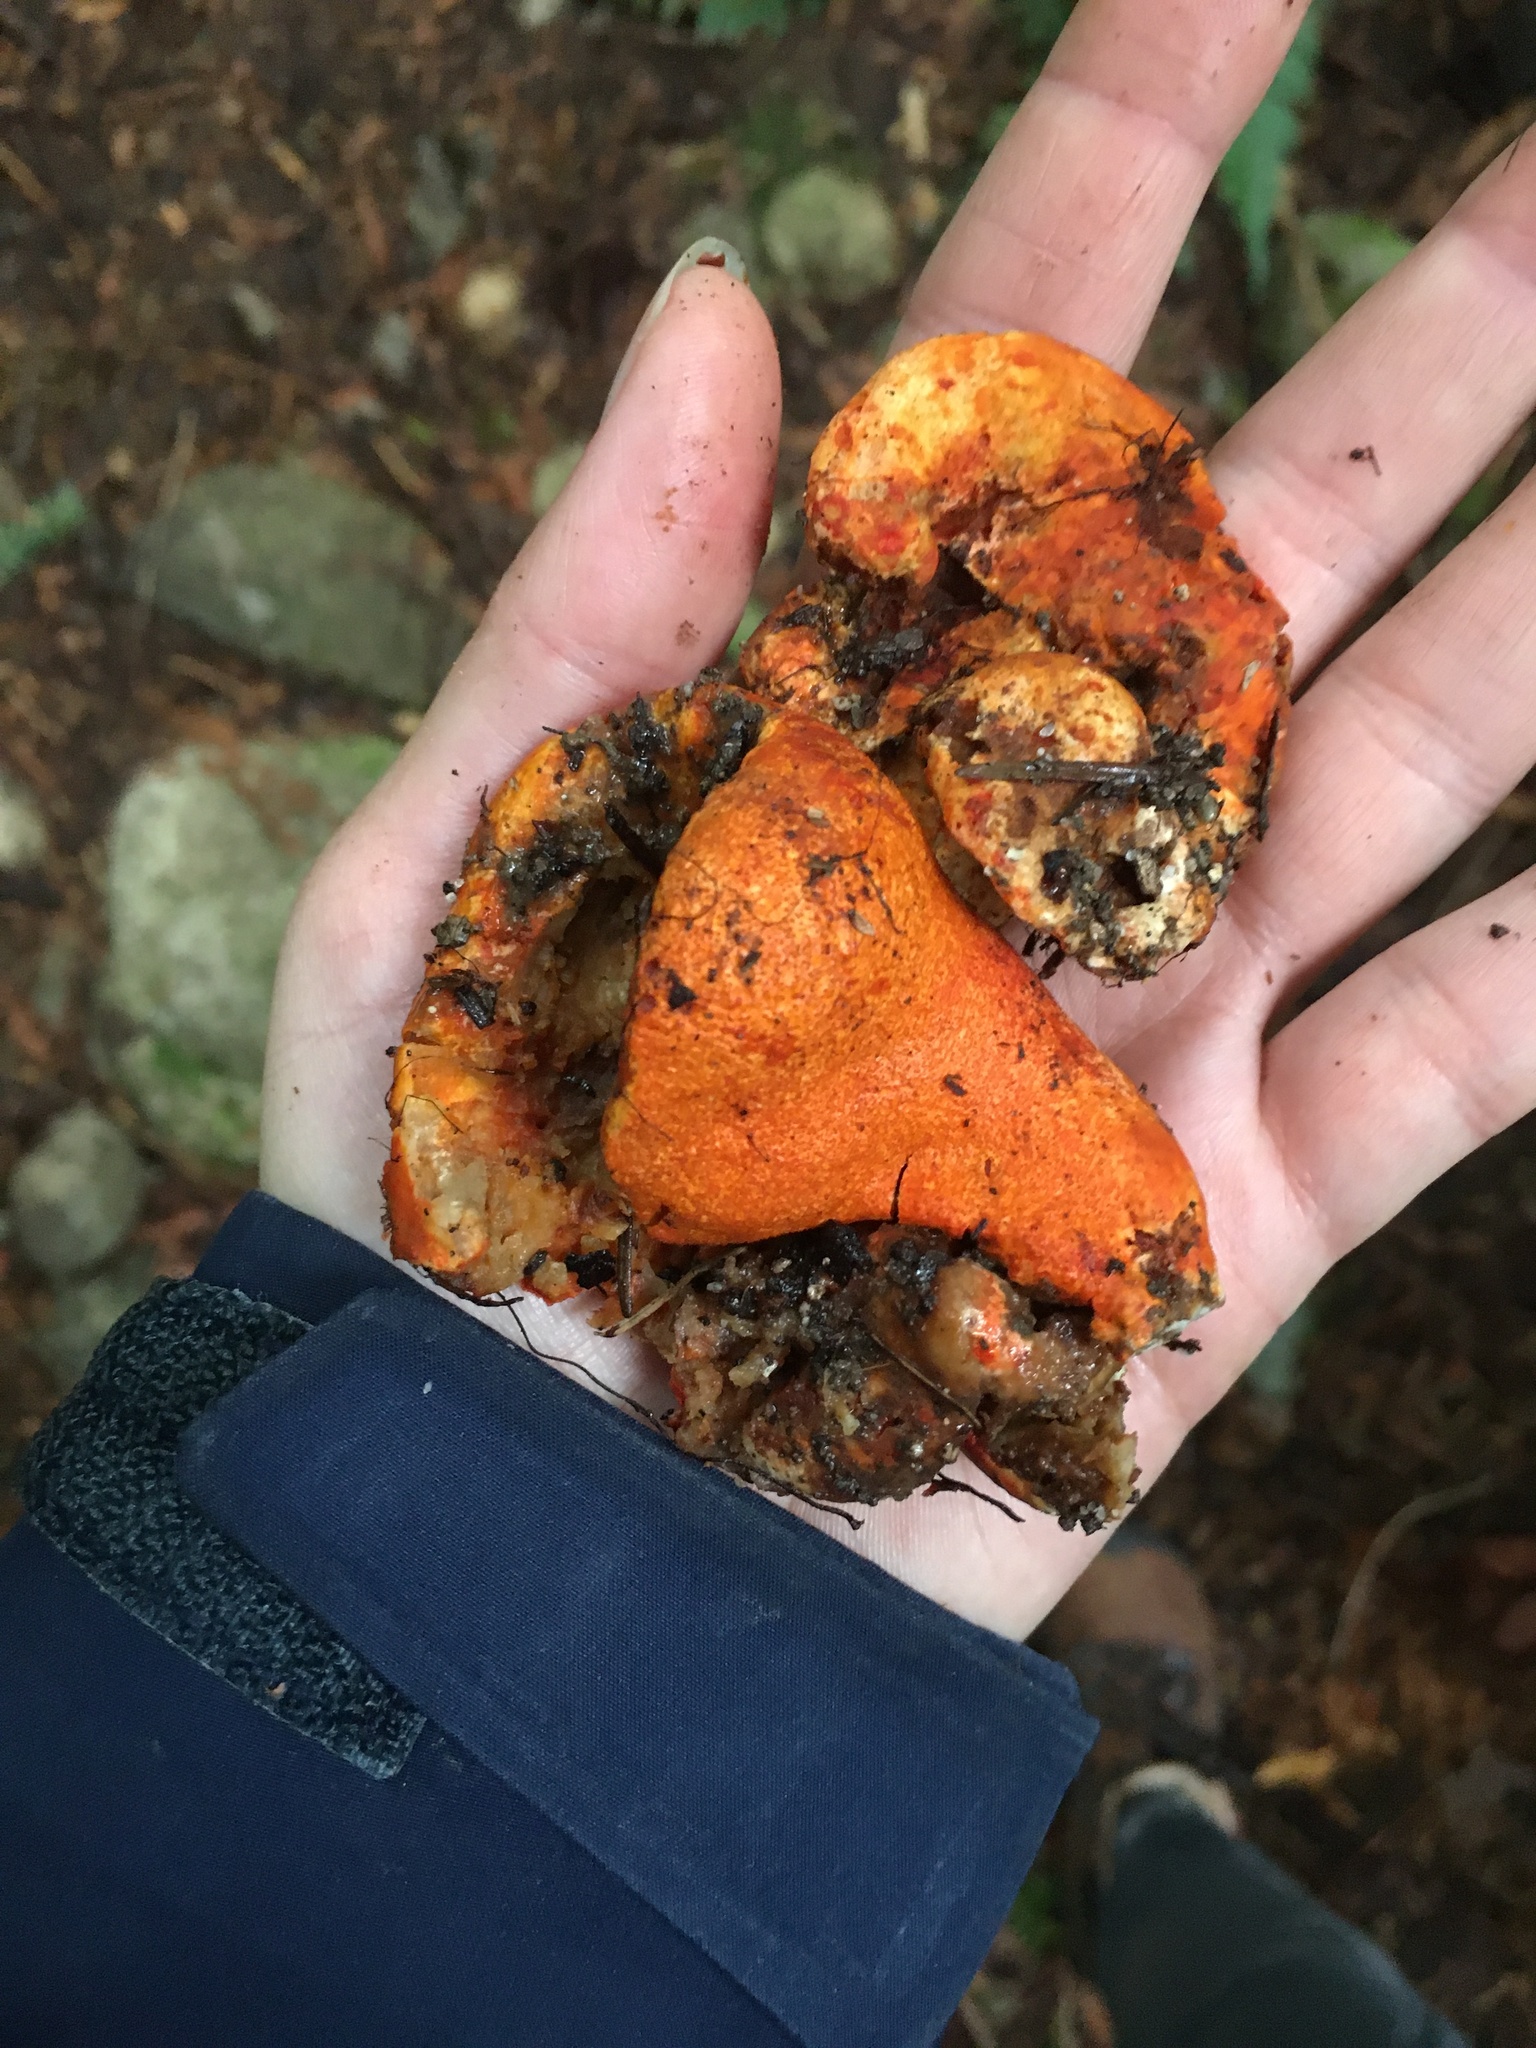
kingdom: Fungi
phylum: Ascomycota
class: Sordariomycetes
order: Hypocreales
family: Hypocreaceae
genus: Hypomyces
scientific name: Hypomyces lactifluorum
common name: Lobster mushroom
